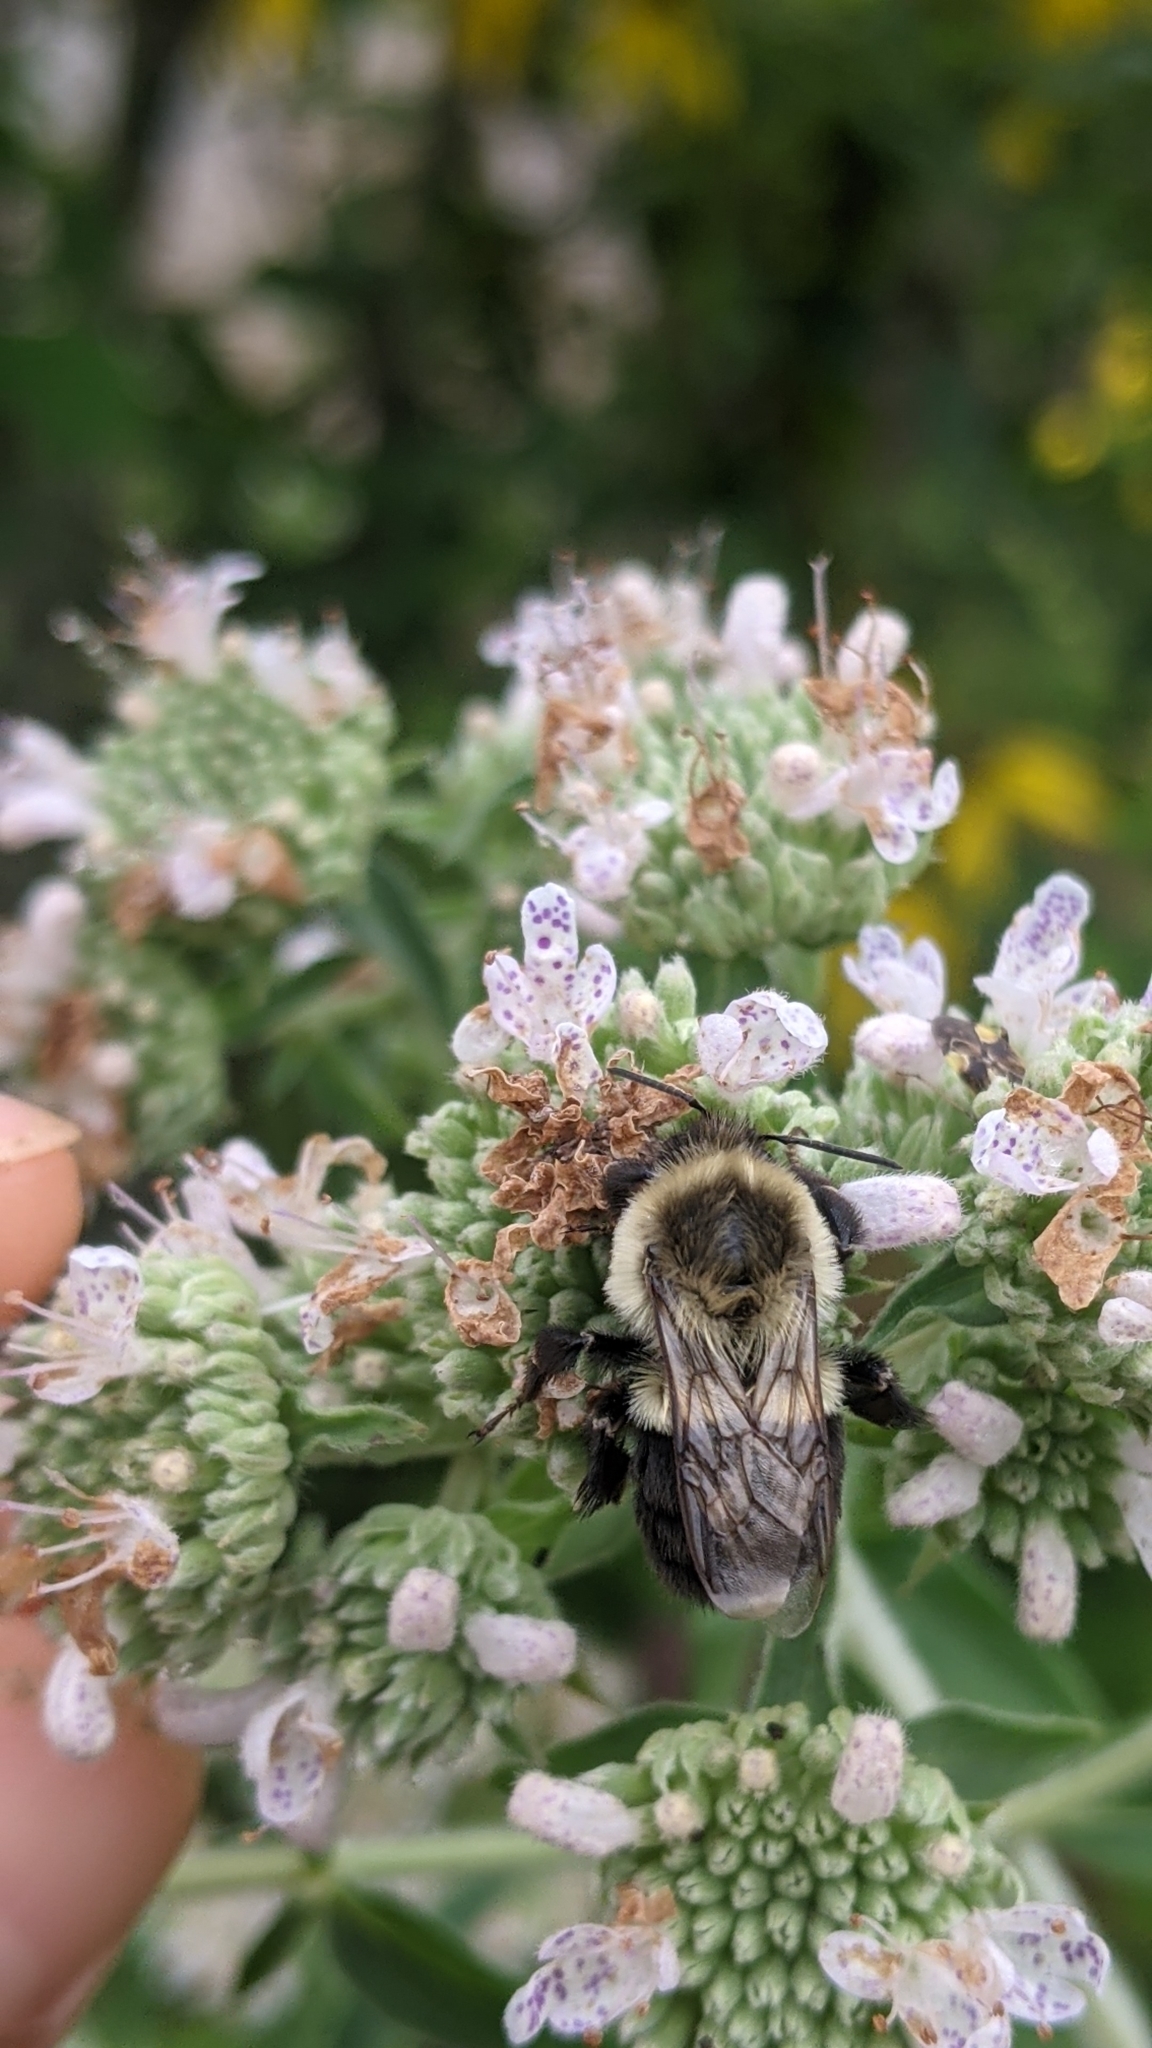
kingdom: Animalia
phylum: Arthropoda
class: Insecta
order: Hymenoptera
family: Apidae
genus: Bombus
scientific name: Bombus impatiens
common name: Common eastern bumble bee
